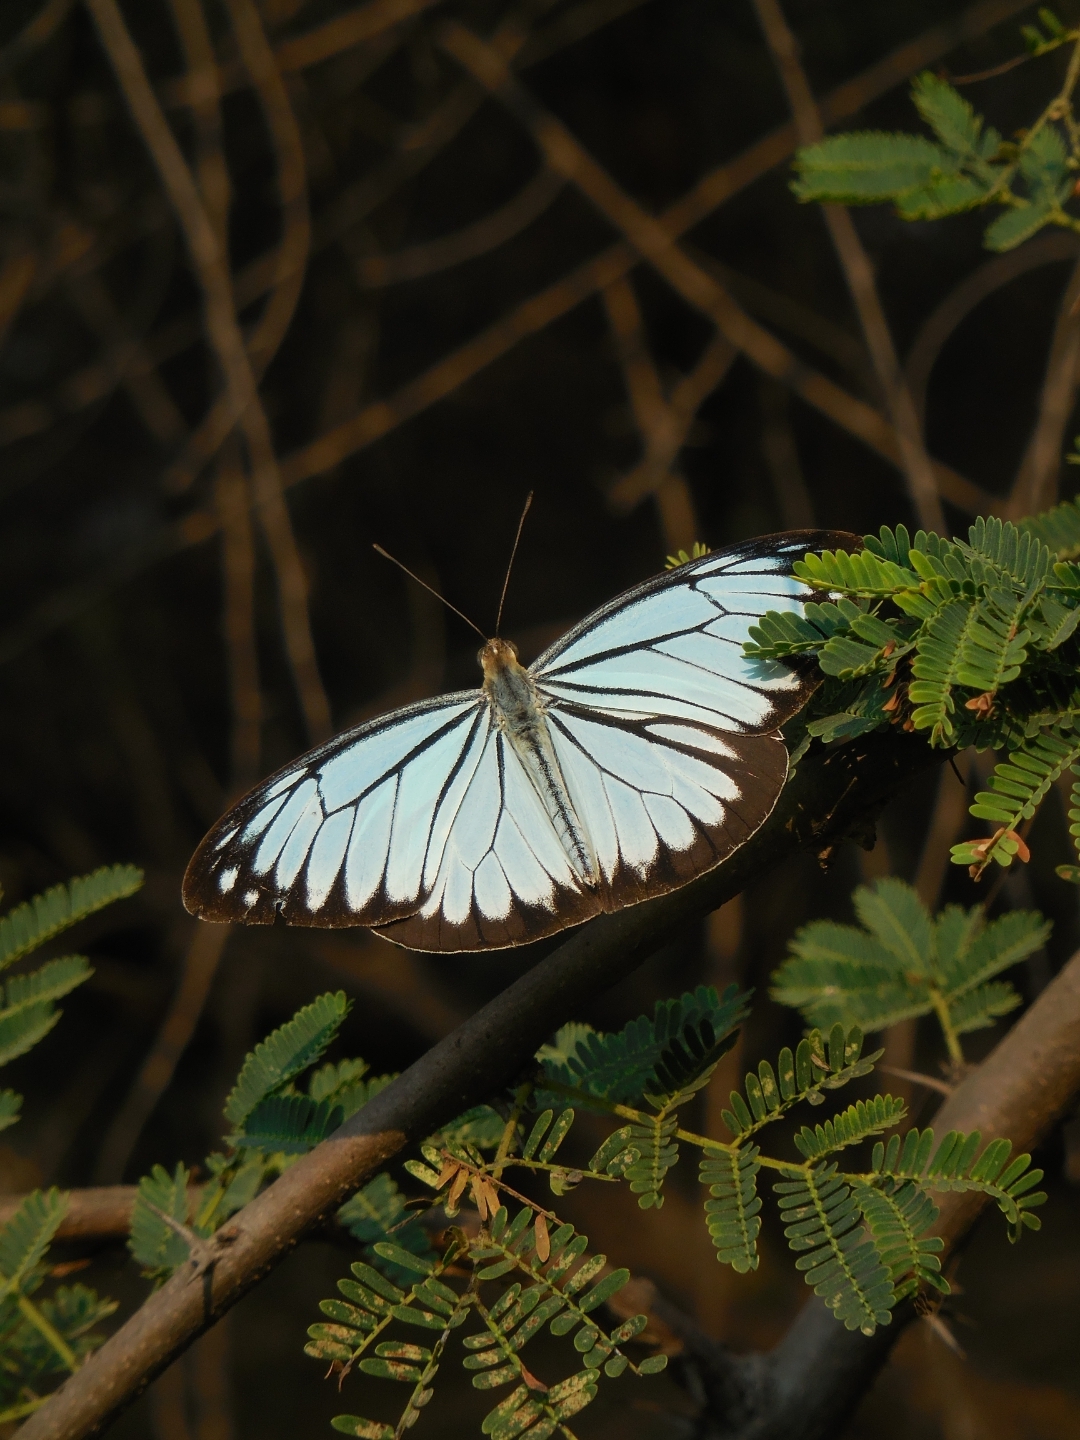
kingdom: Animalia
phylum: Arthropoda
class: Insecta
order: Lepidoptera
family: Pieridae
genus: Pareronia
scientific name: Pareronia hippia
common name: Indian wanderer
